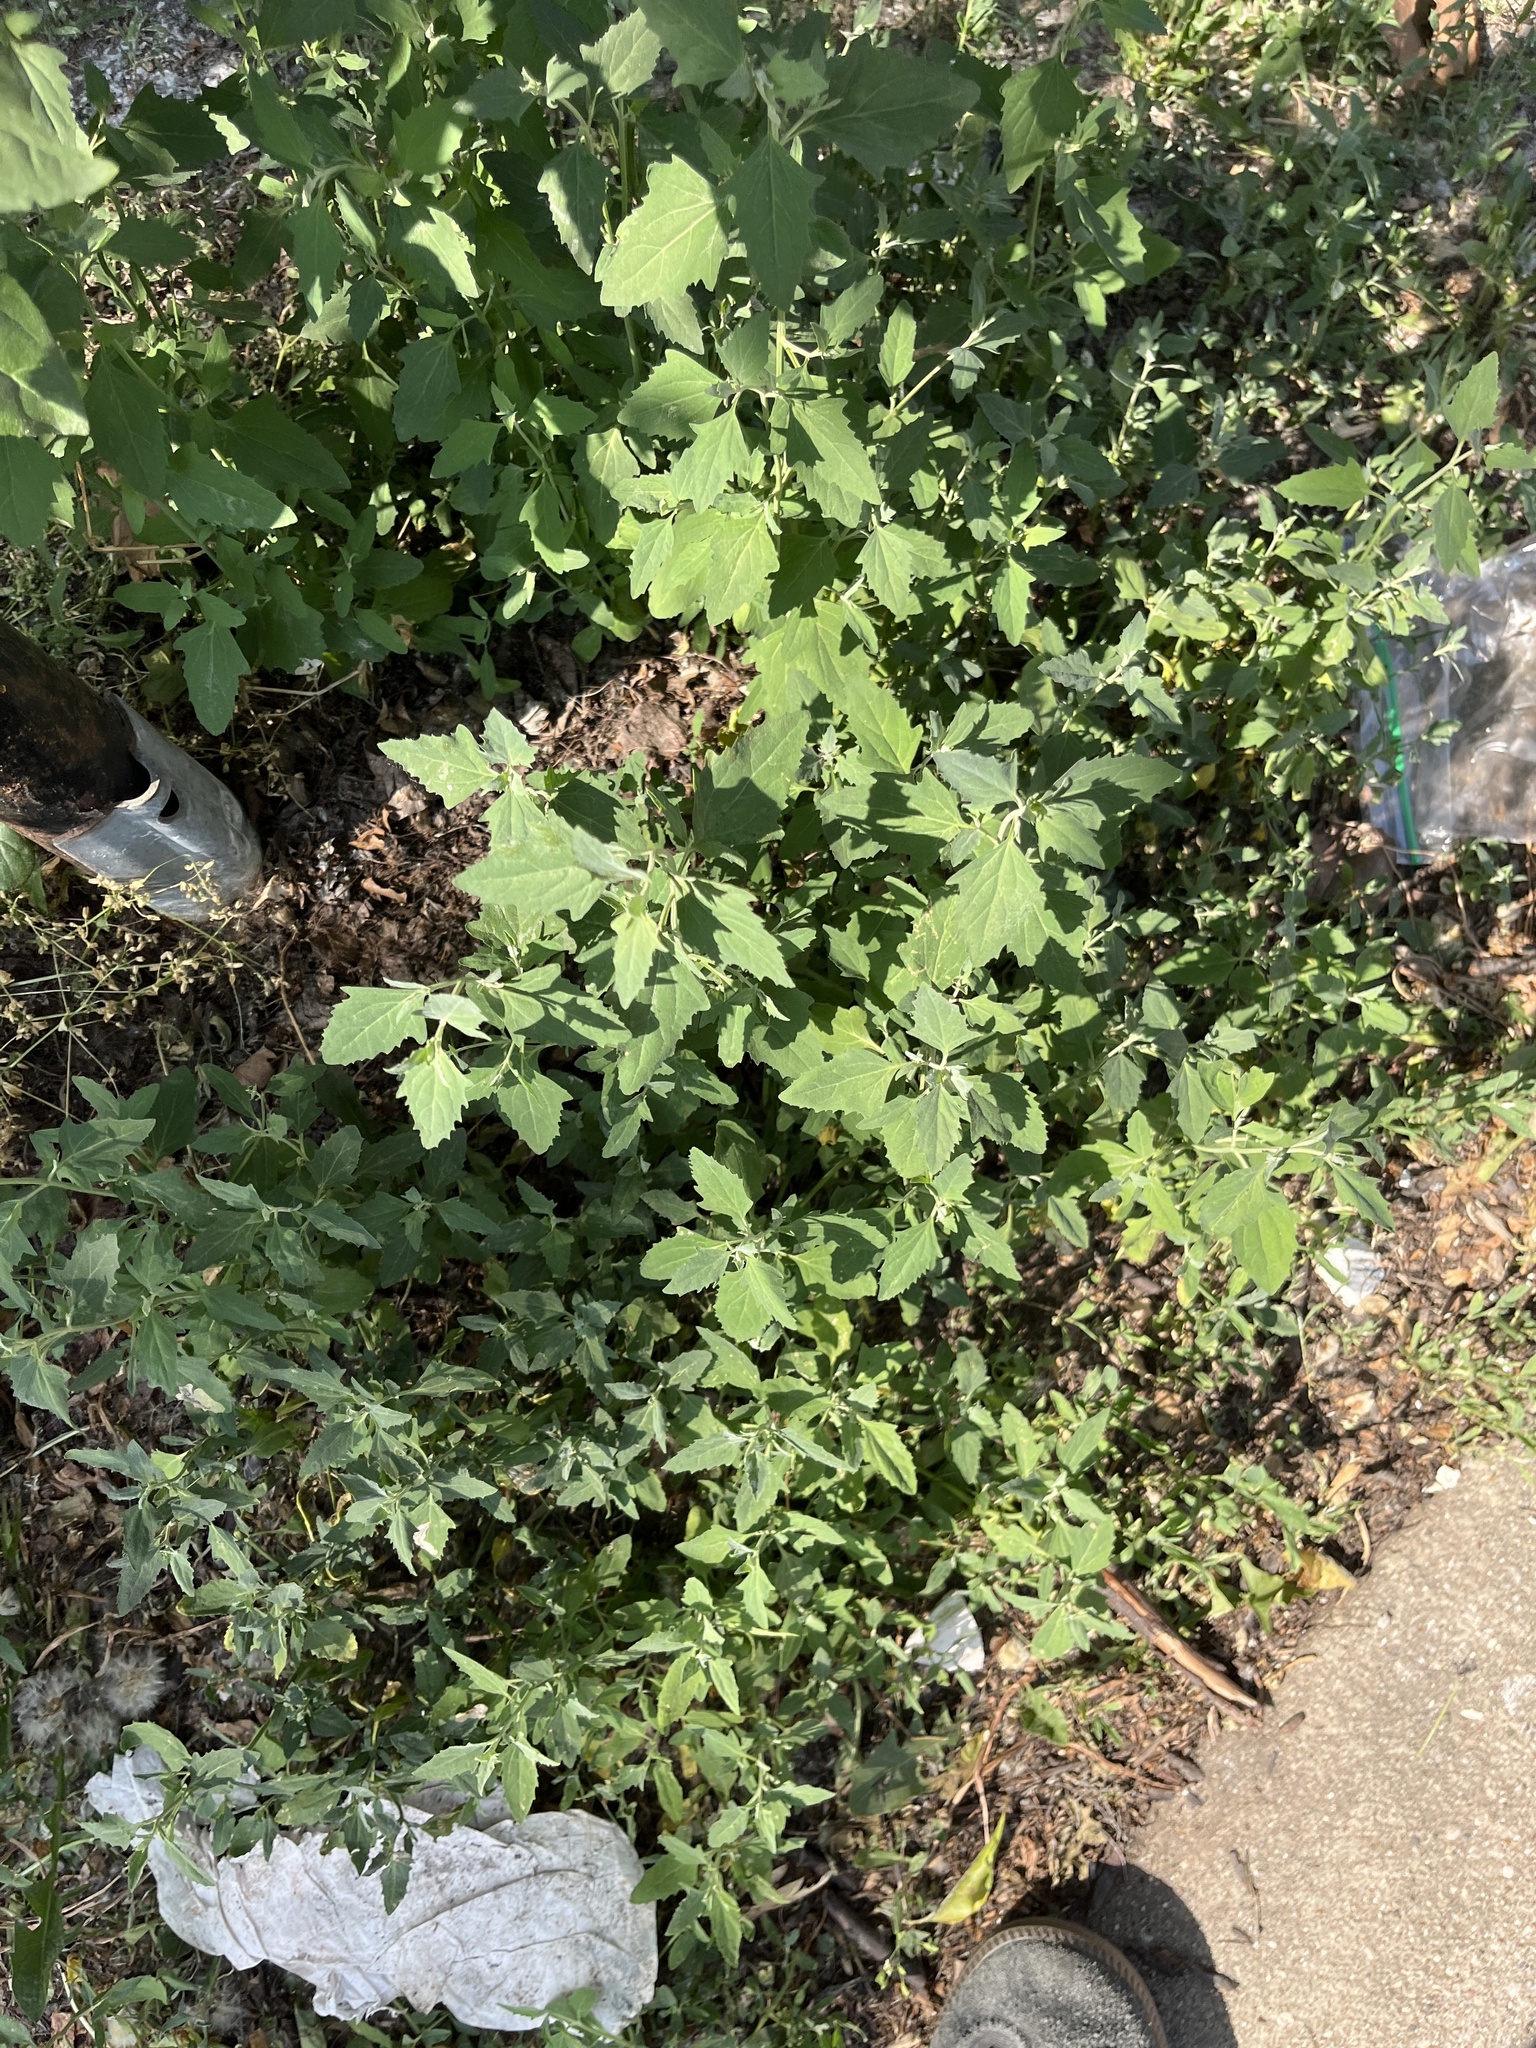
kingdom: Plantae
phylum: Tracheophyta
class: Magnoliopsida
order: Caryophyllales
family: Amaranthaceae
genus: Chenopodium
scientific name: Chenopodium album
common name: Fat-hen
